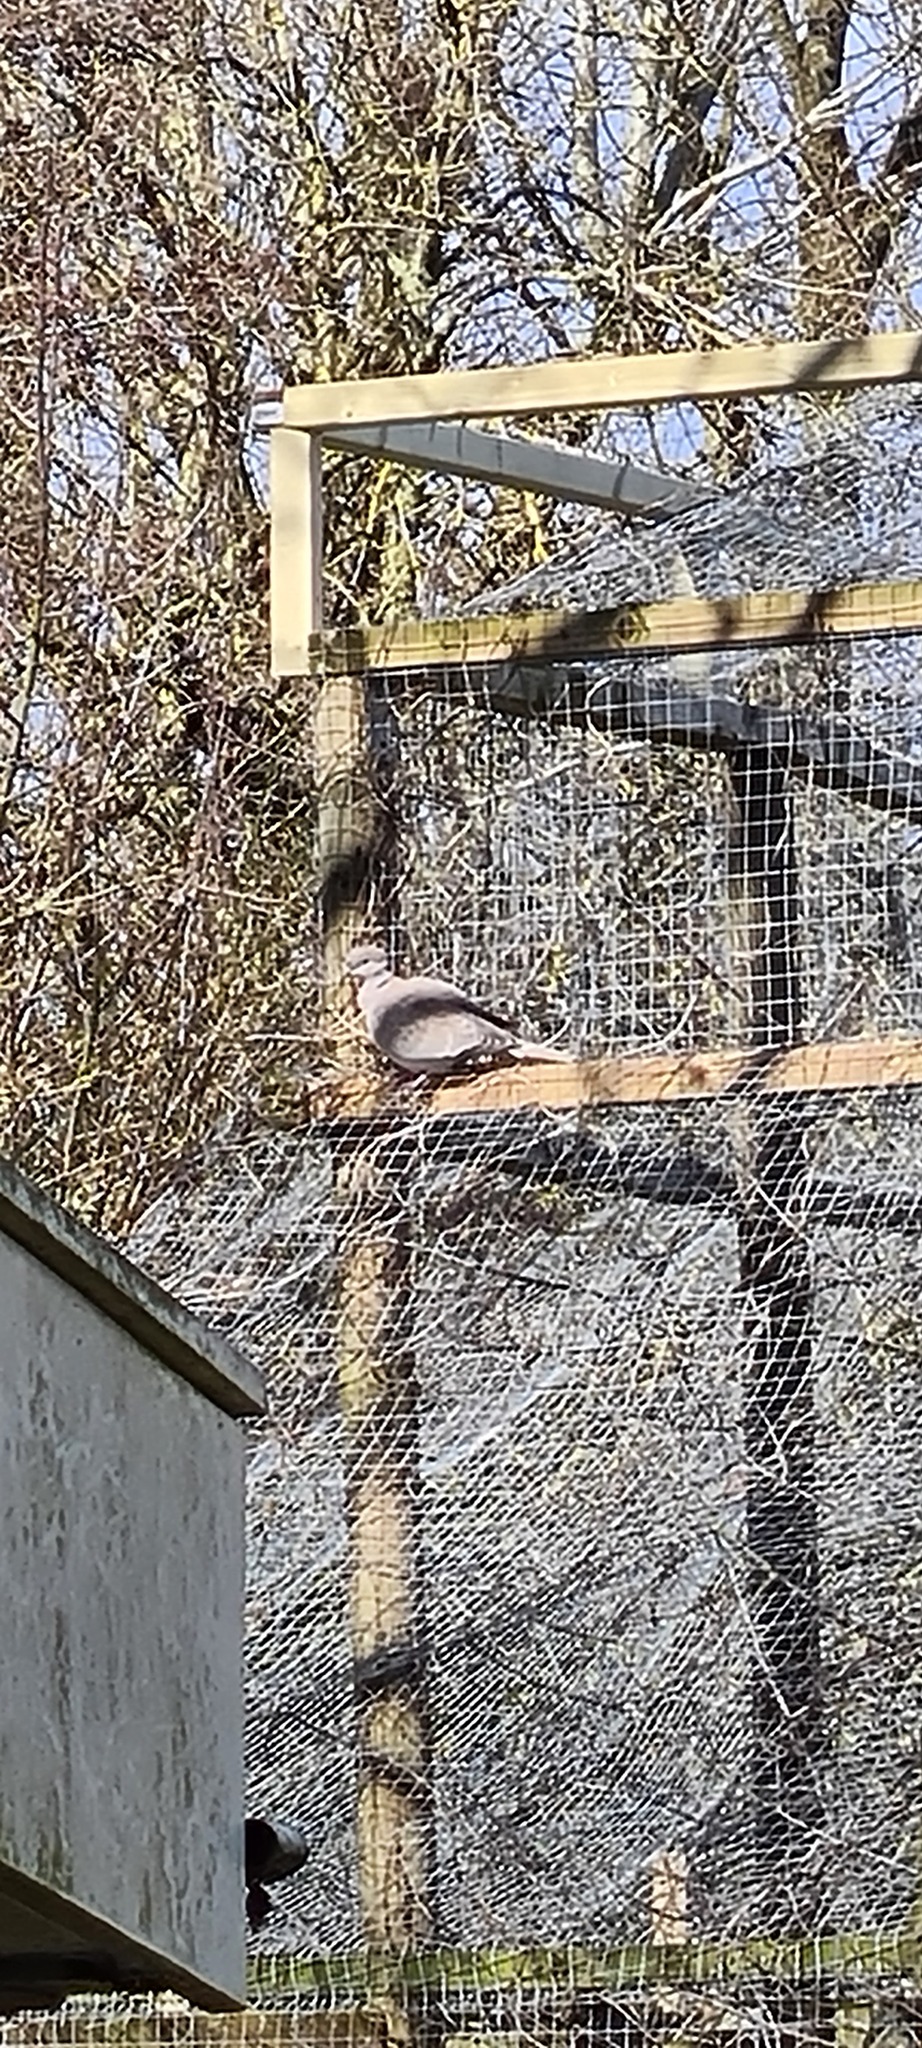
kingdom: Animalia
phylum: Chordata
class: Aves
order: Columbiformes
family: Columbidae
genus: Streptopelia
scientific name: Streptopelia decaocto
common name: Eurasian collared dove
